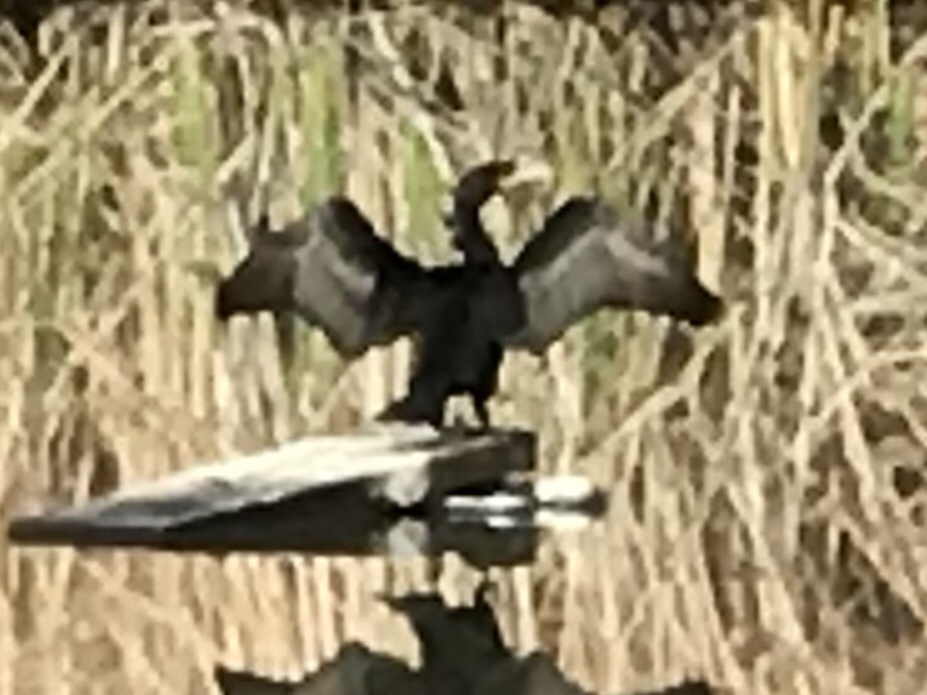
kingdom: Animalia
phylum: Chordata
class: Aves
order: Suliformes
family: Phalacrocoracidae
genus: Phalacrocorax
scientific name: Phalacrocorax auritus
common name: Double-crested cormorant
